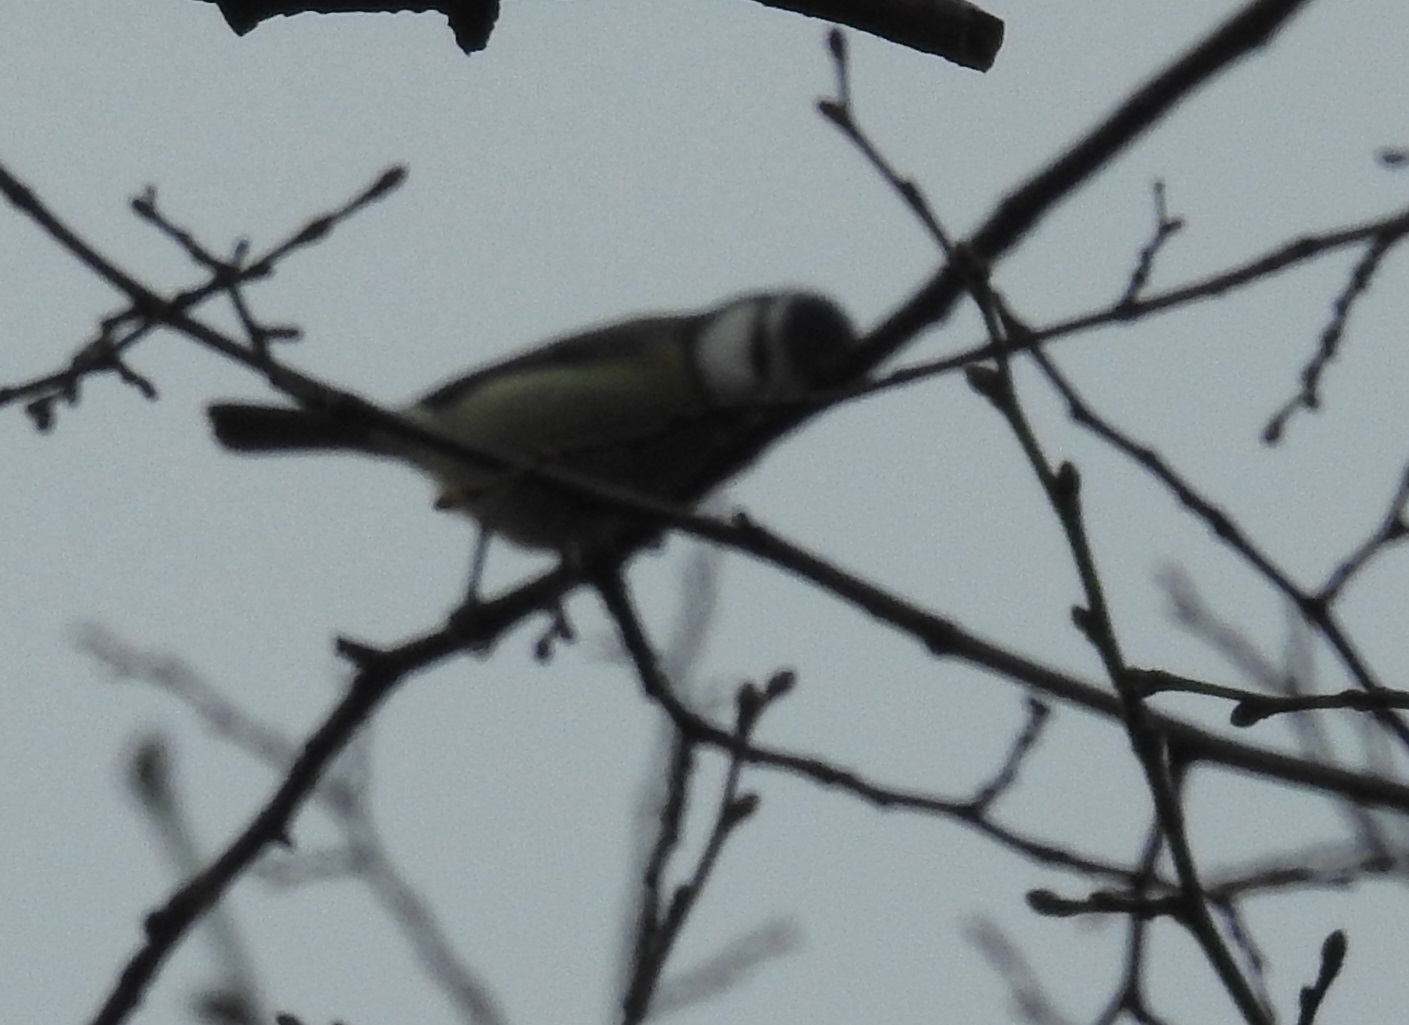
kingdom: Animalia
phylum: Chordata
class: Aves
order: Passeriformes
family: Paridae
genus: Cyanistes
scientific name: Cyanistes caeruleus
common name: Eurasian blue tit
